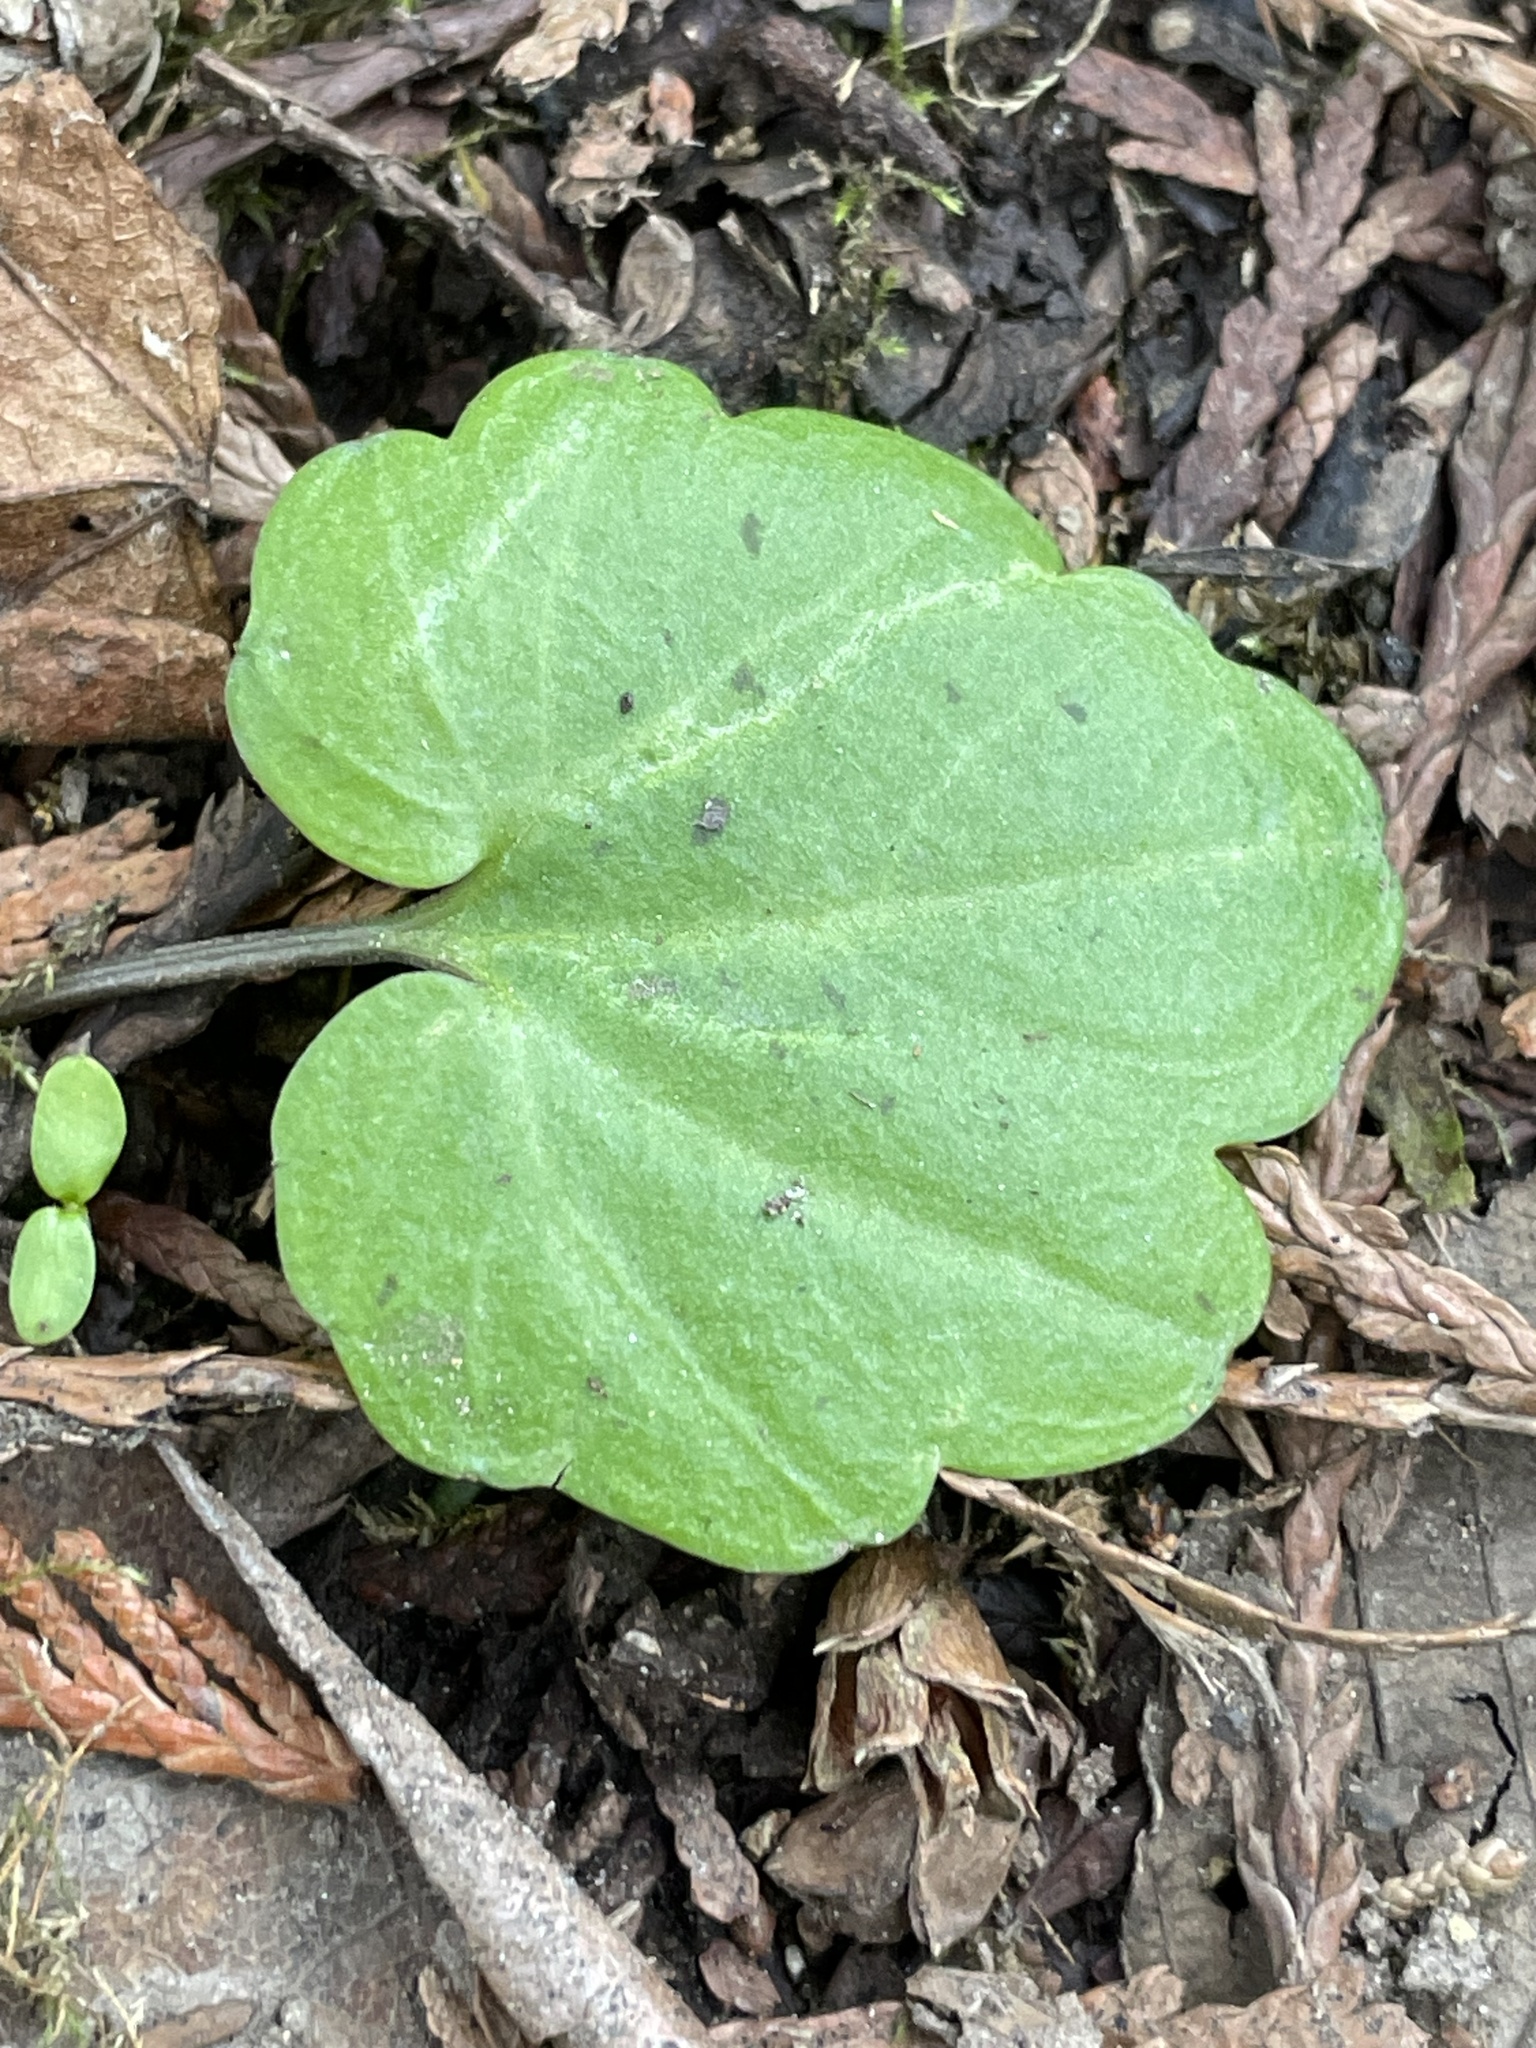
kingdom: Plantae
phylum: Tracheophyta
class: Magnoliopsida
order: Brassicales
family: Brassicaceae
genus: Cardamine
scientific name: Cardamine nuttallii
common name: Nuttall's toothwort
